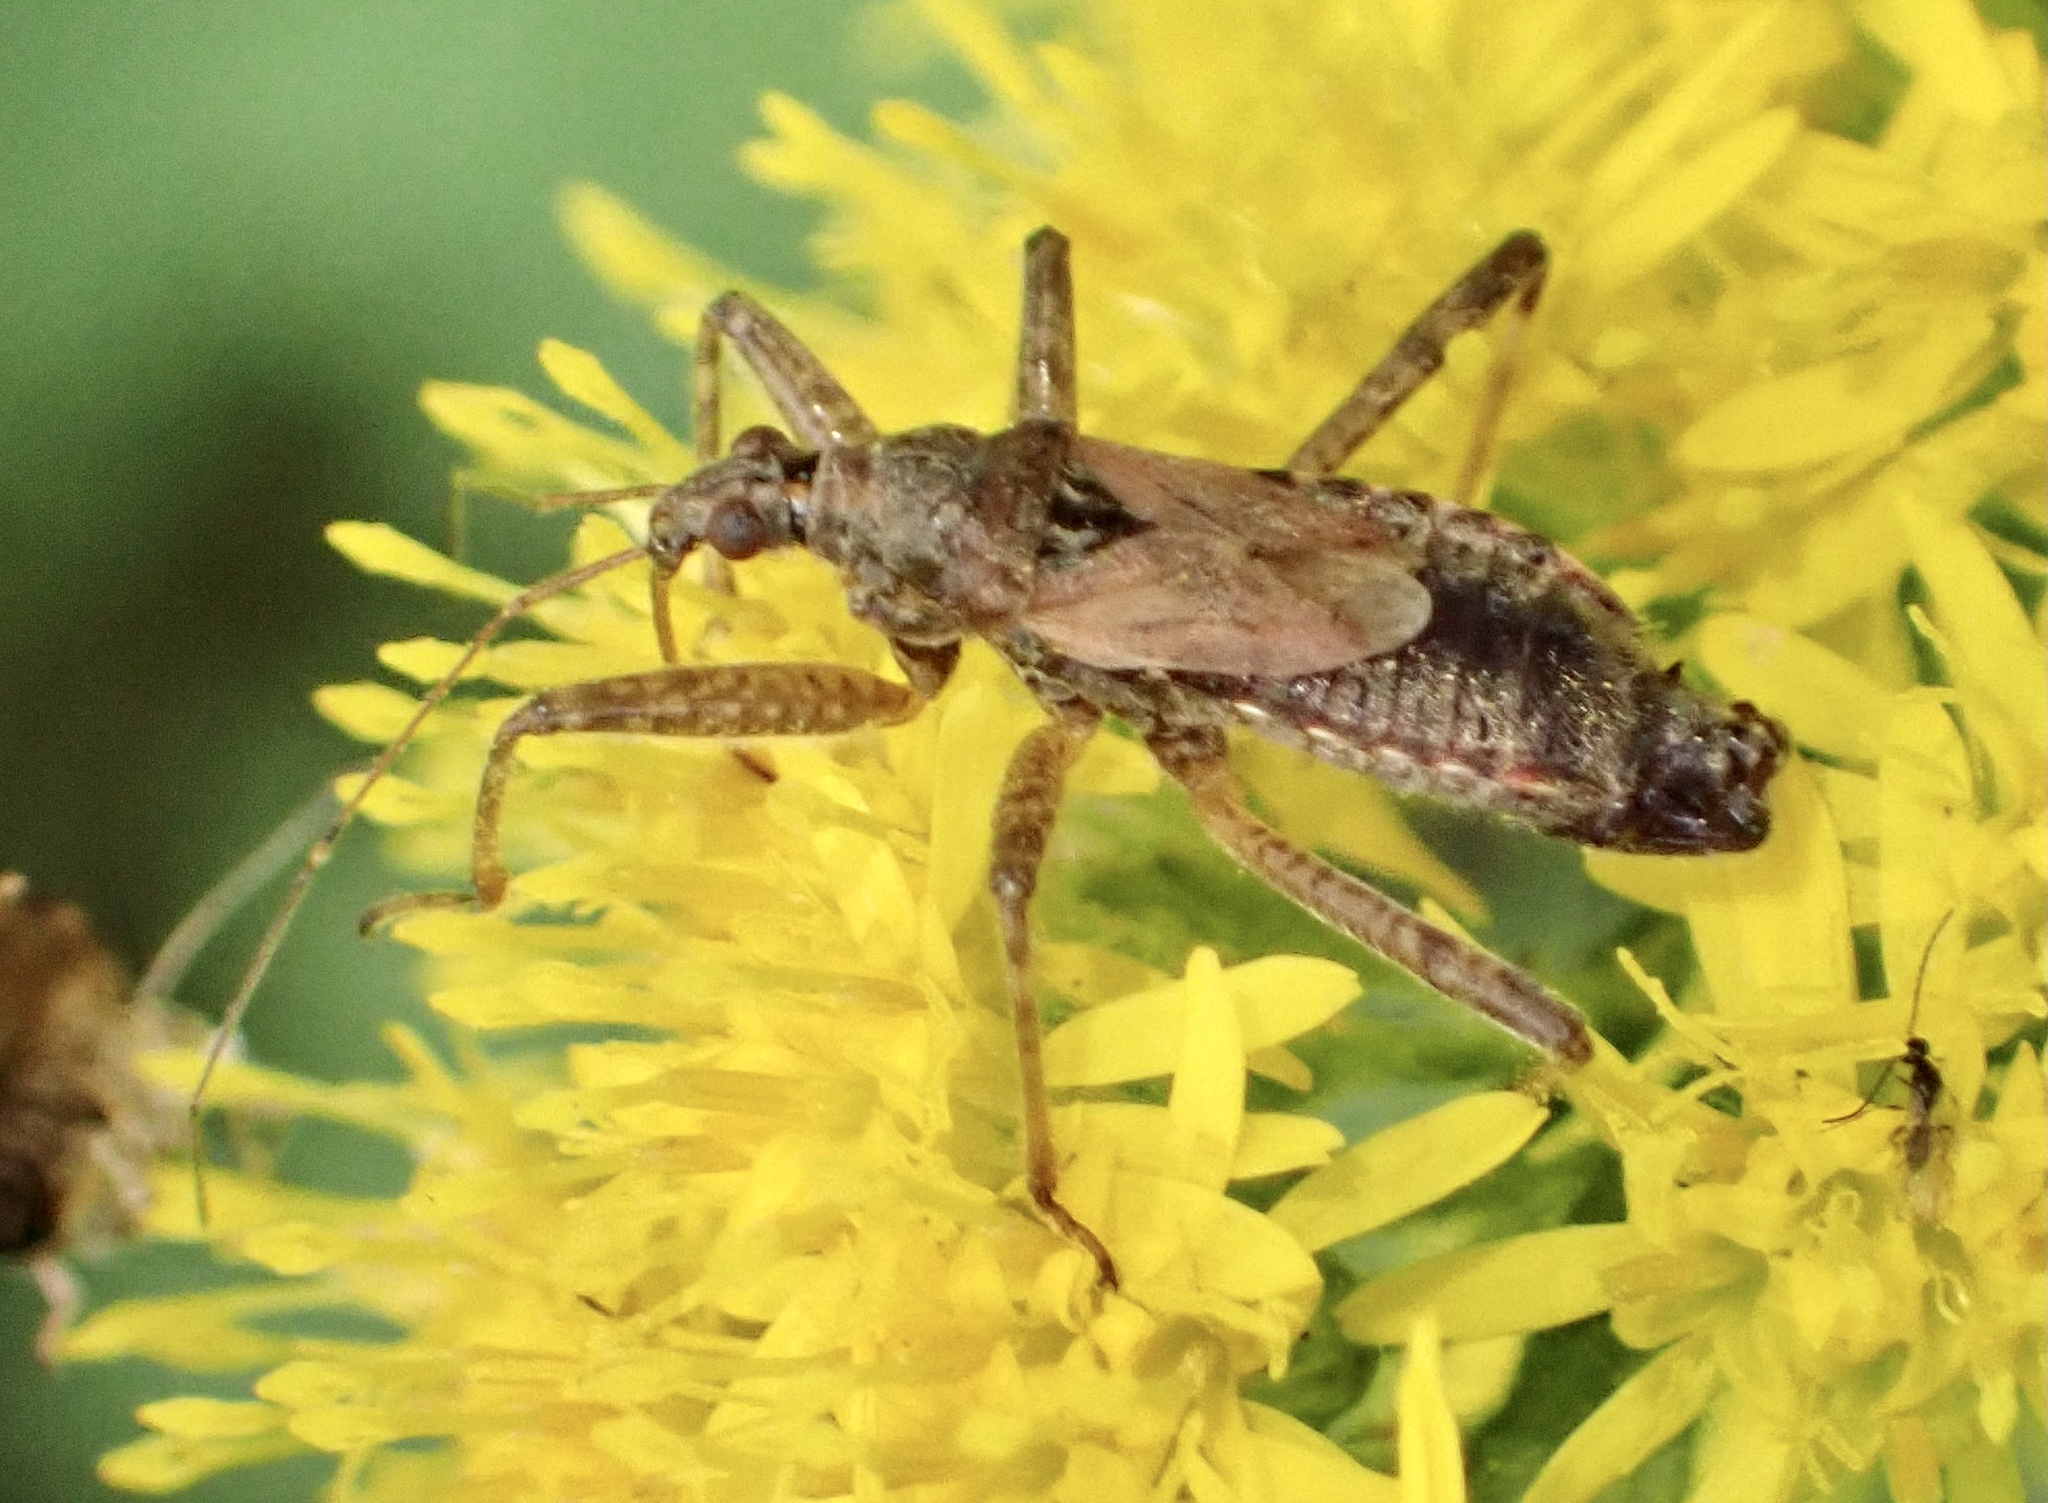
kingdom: Animalia
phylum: Arthropoda
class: Insecta
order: Hemiptera
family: Nabidae
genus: Himacerus
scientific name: Himacerus apterus
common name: Tree damsel bug
